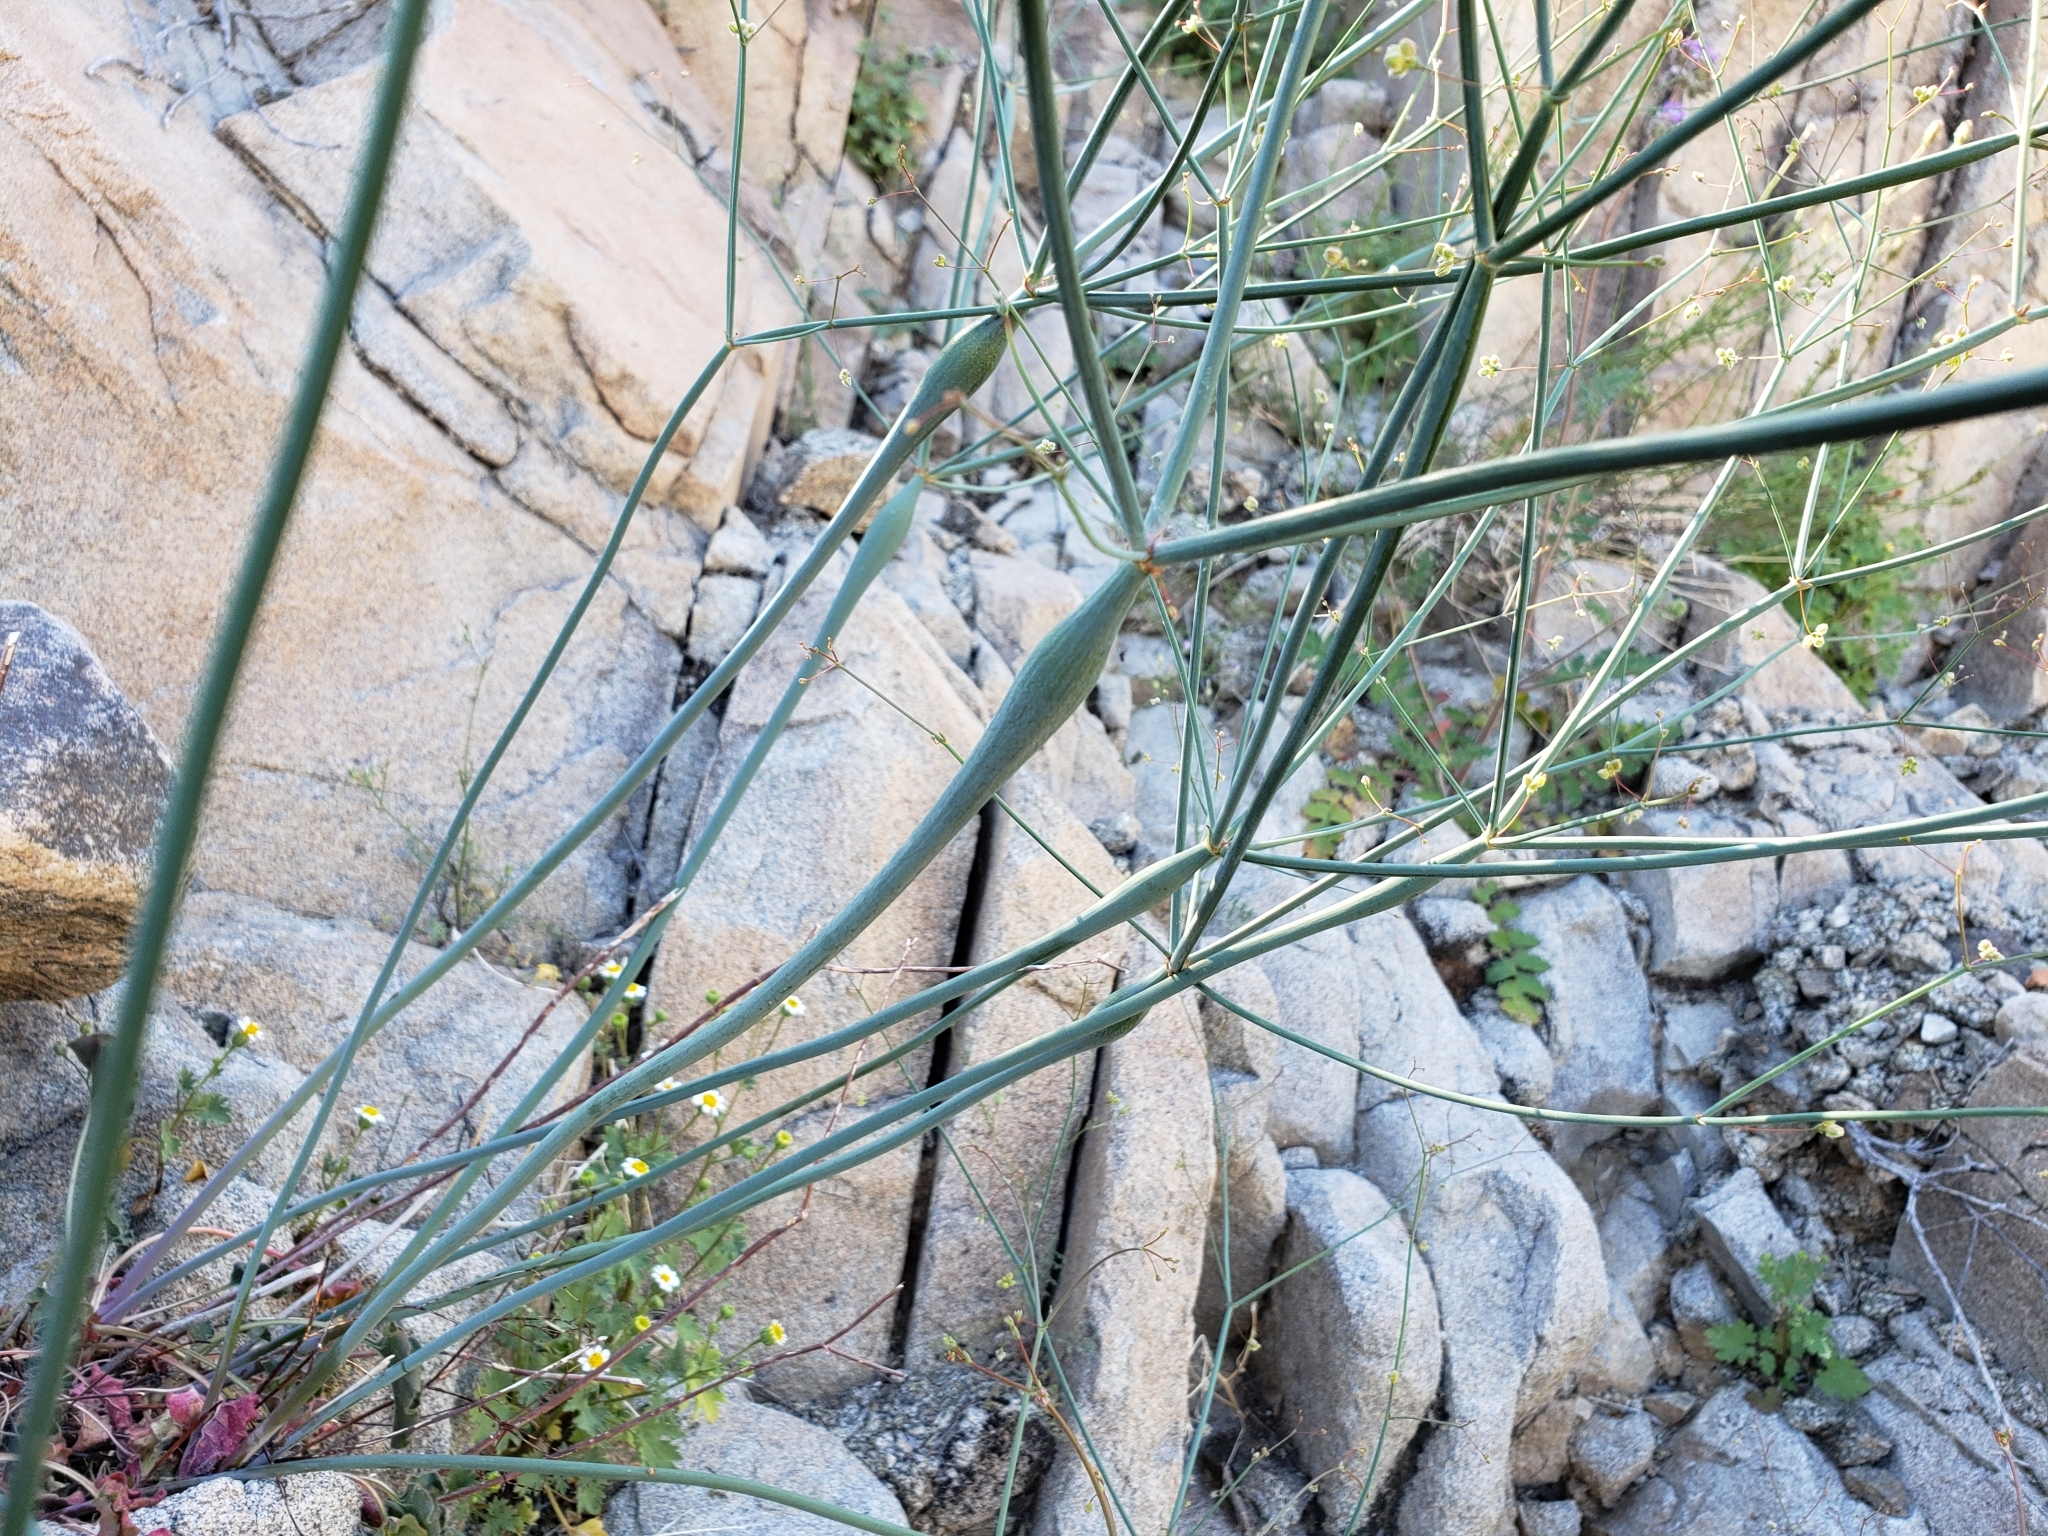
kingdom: Plantae
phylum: Tracheophyta
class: Magnoliopsida
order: Caryophyllales
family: Polygonaceae
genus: Eriogonum
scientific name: Eriogonum inflatum
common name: Desert trumpet
